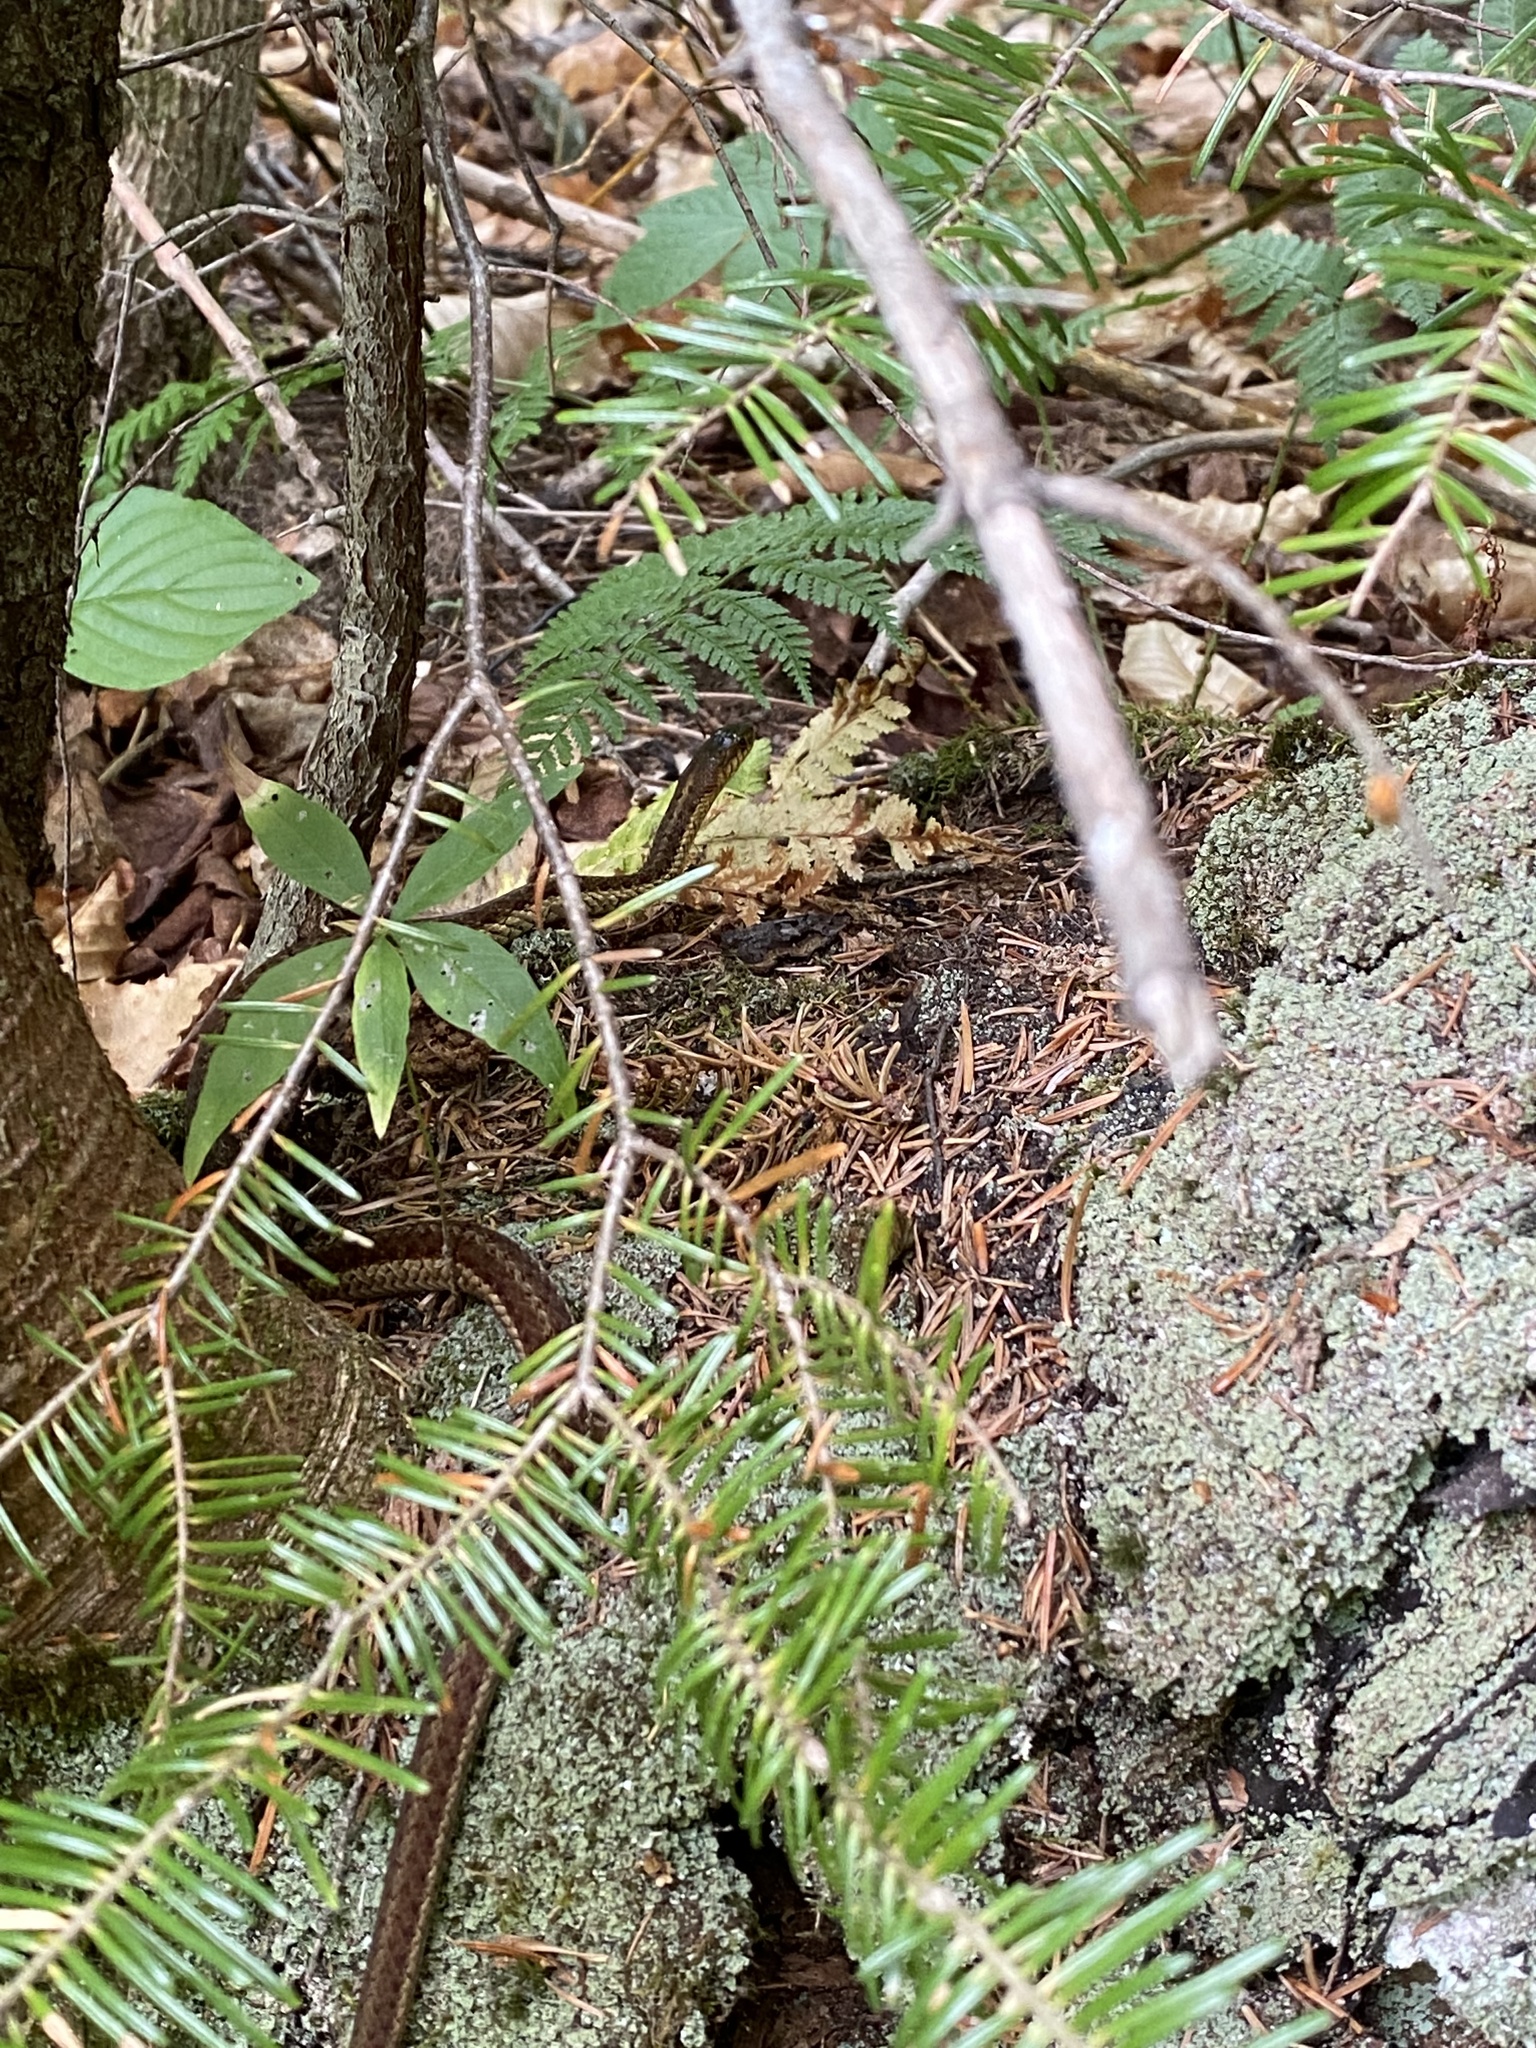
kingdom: Animalia
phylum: Chordata
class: Squamata
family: Colubridae
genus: Thamnophis
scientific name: Thamnophis sirtalis
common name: Common garter snake
